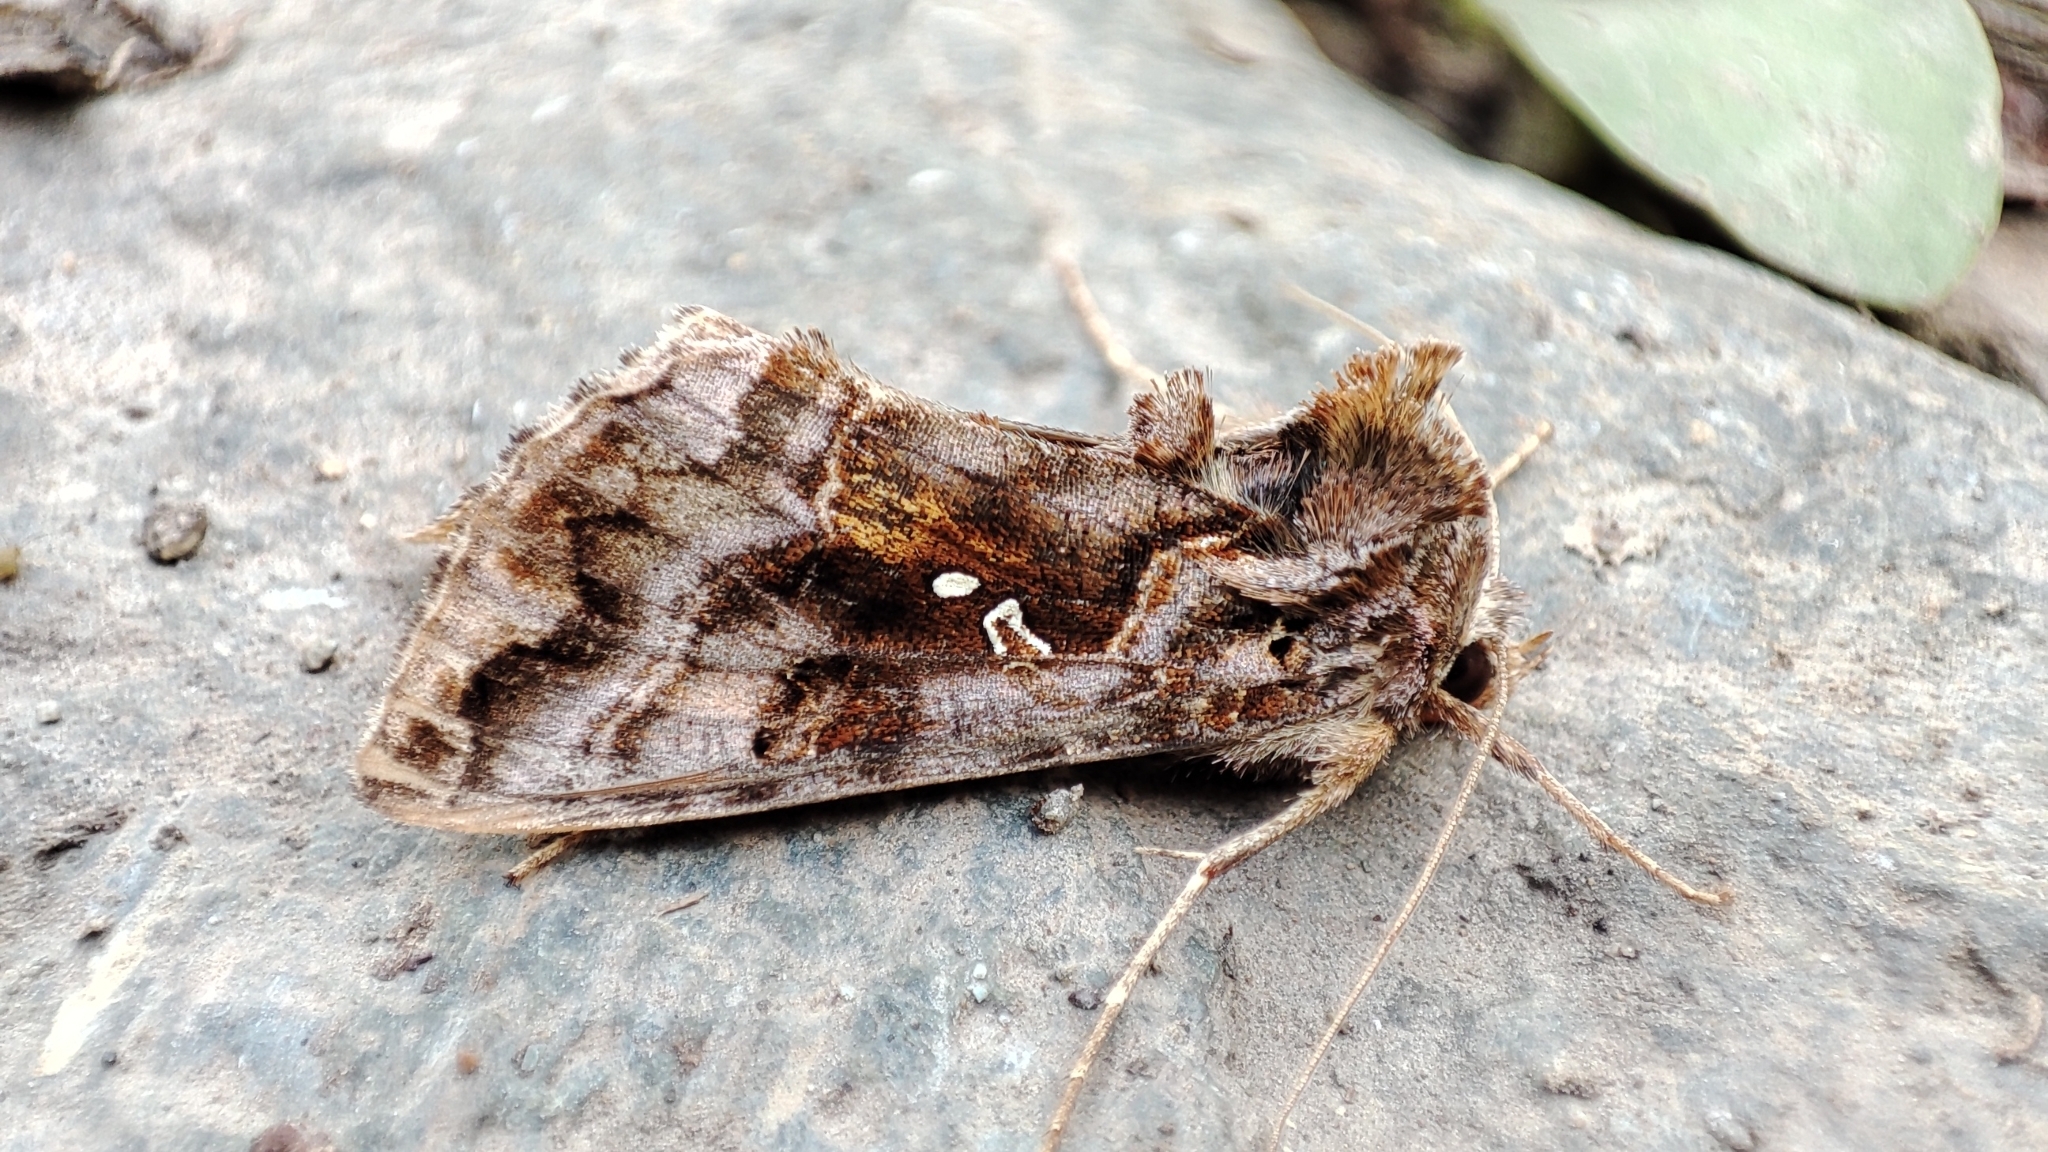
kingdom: Animalia
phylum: Arthropoda
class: Insecta
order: Lepidoptera
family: Noctuidae
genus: Autographa
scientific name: Autographa pulchrina
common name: Beautiful golden y
